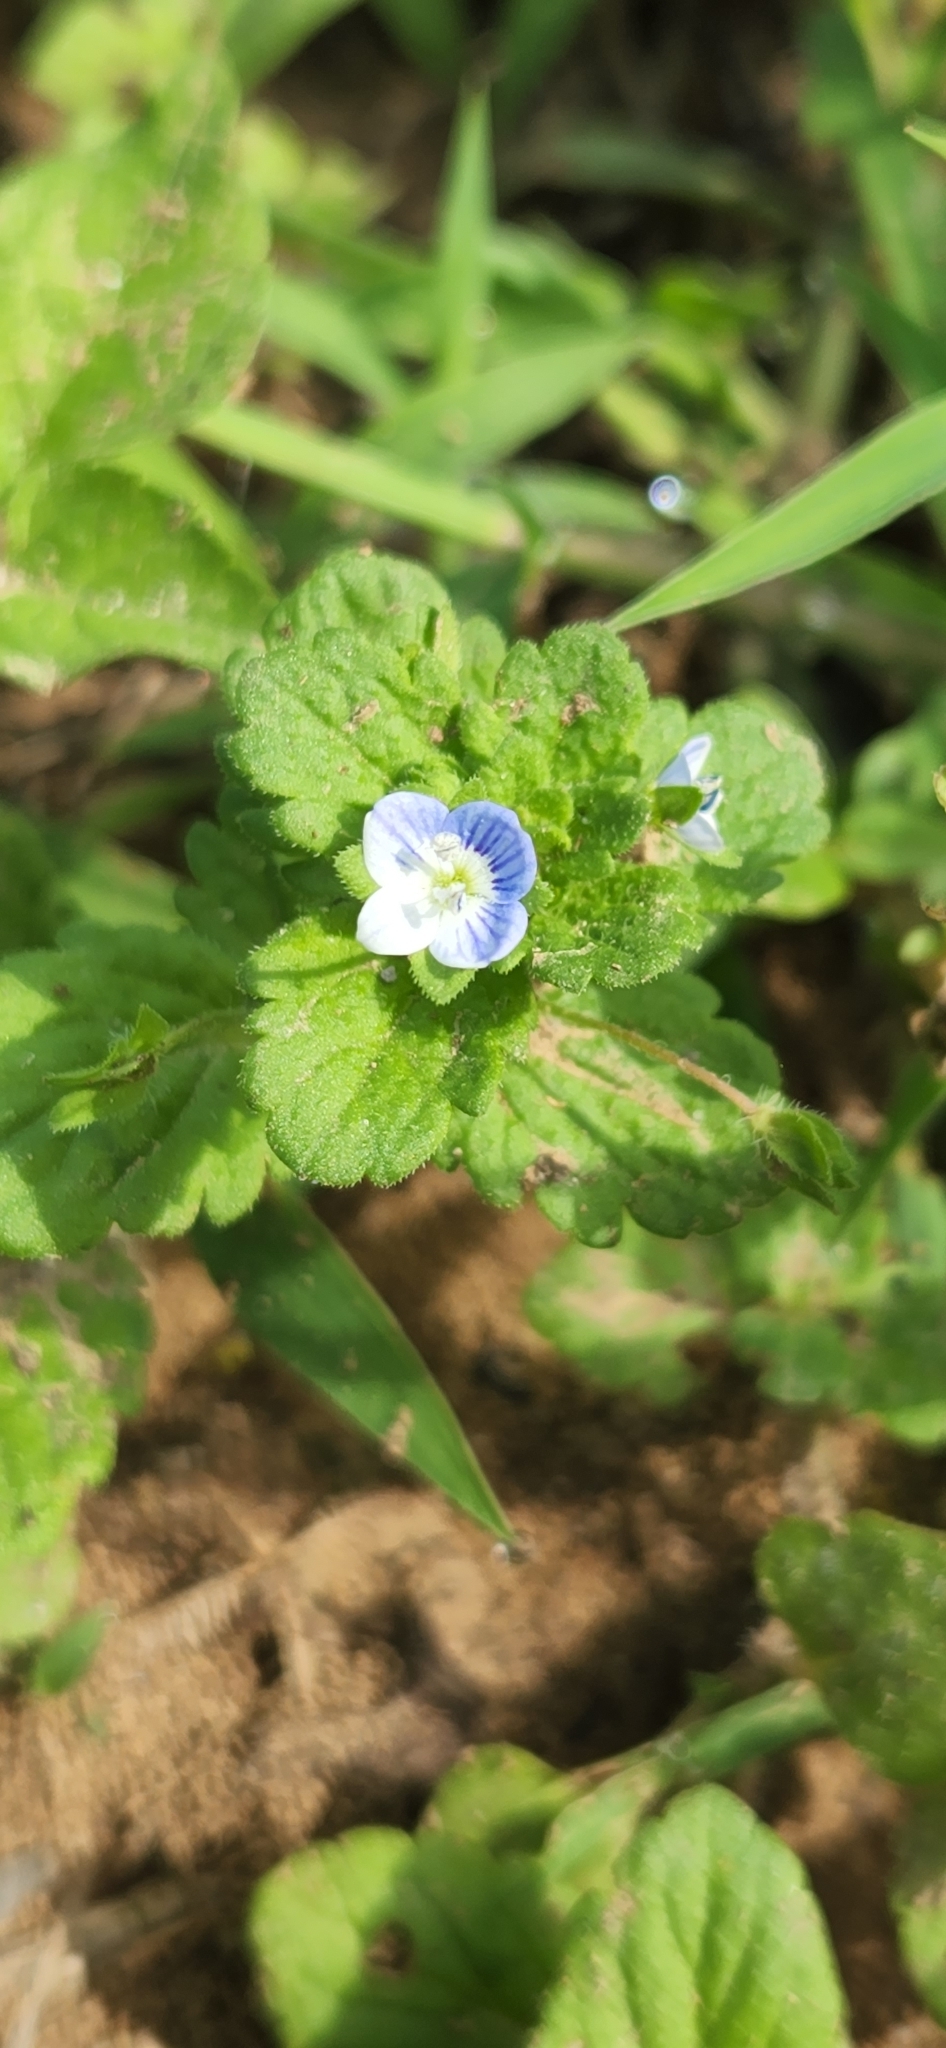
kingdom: Plantae
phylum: Tracheophyta
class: Magnoliopsida
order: Lamiales
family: Plantaginaceae
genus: Veronica
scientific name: Veronica persica
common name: Common field-speedwell
